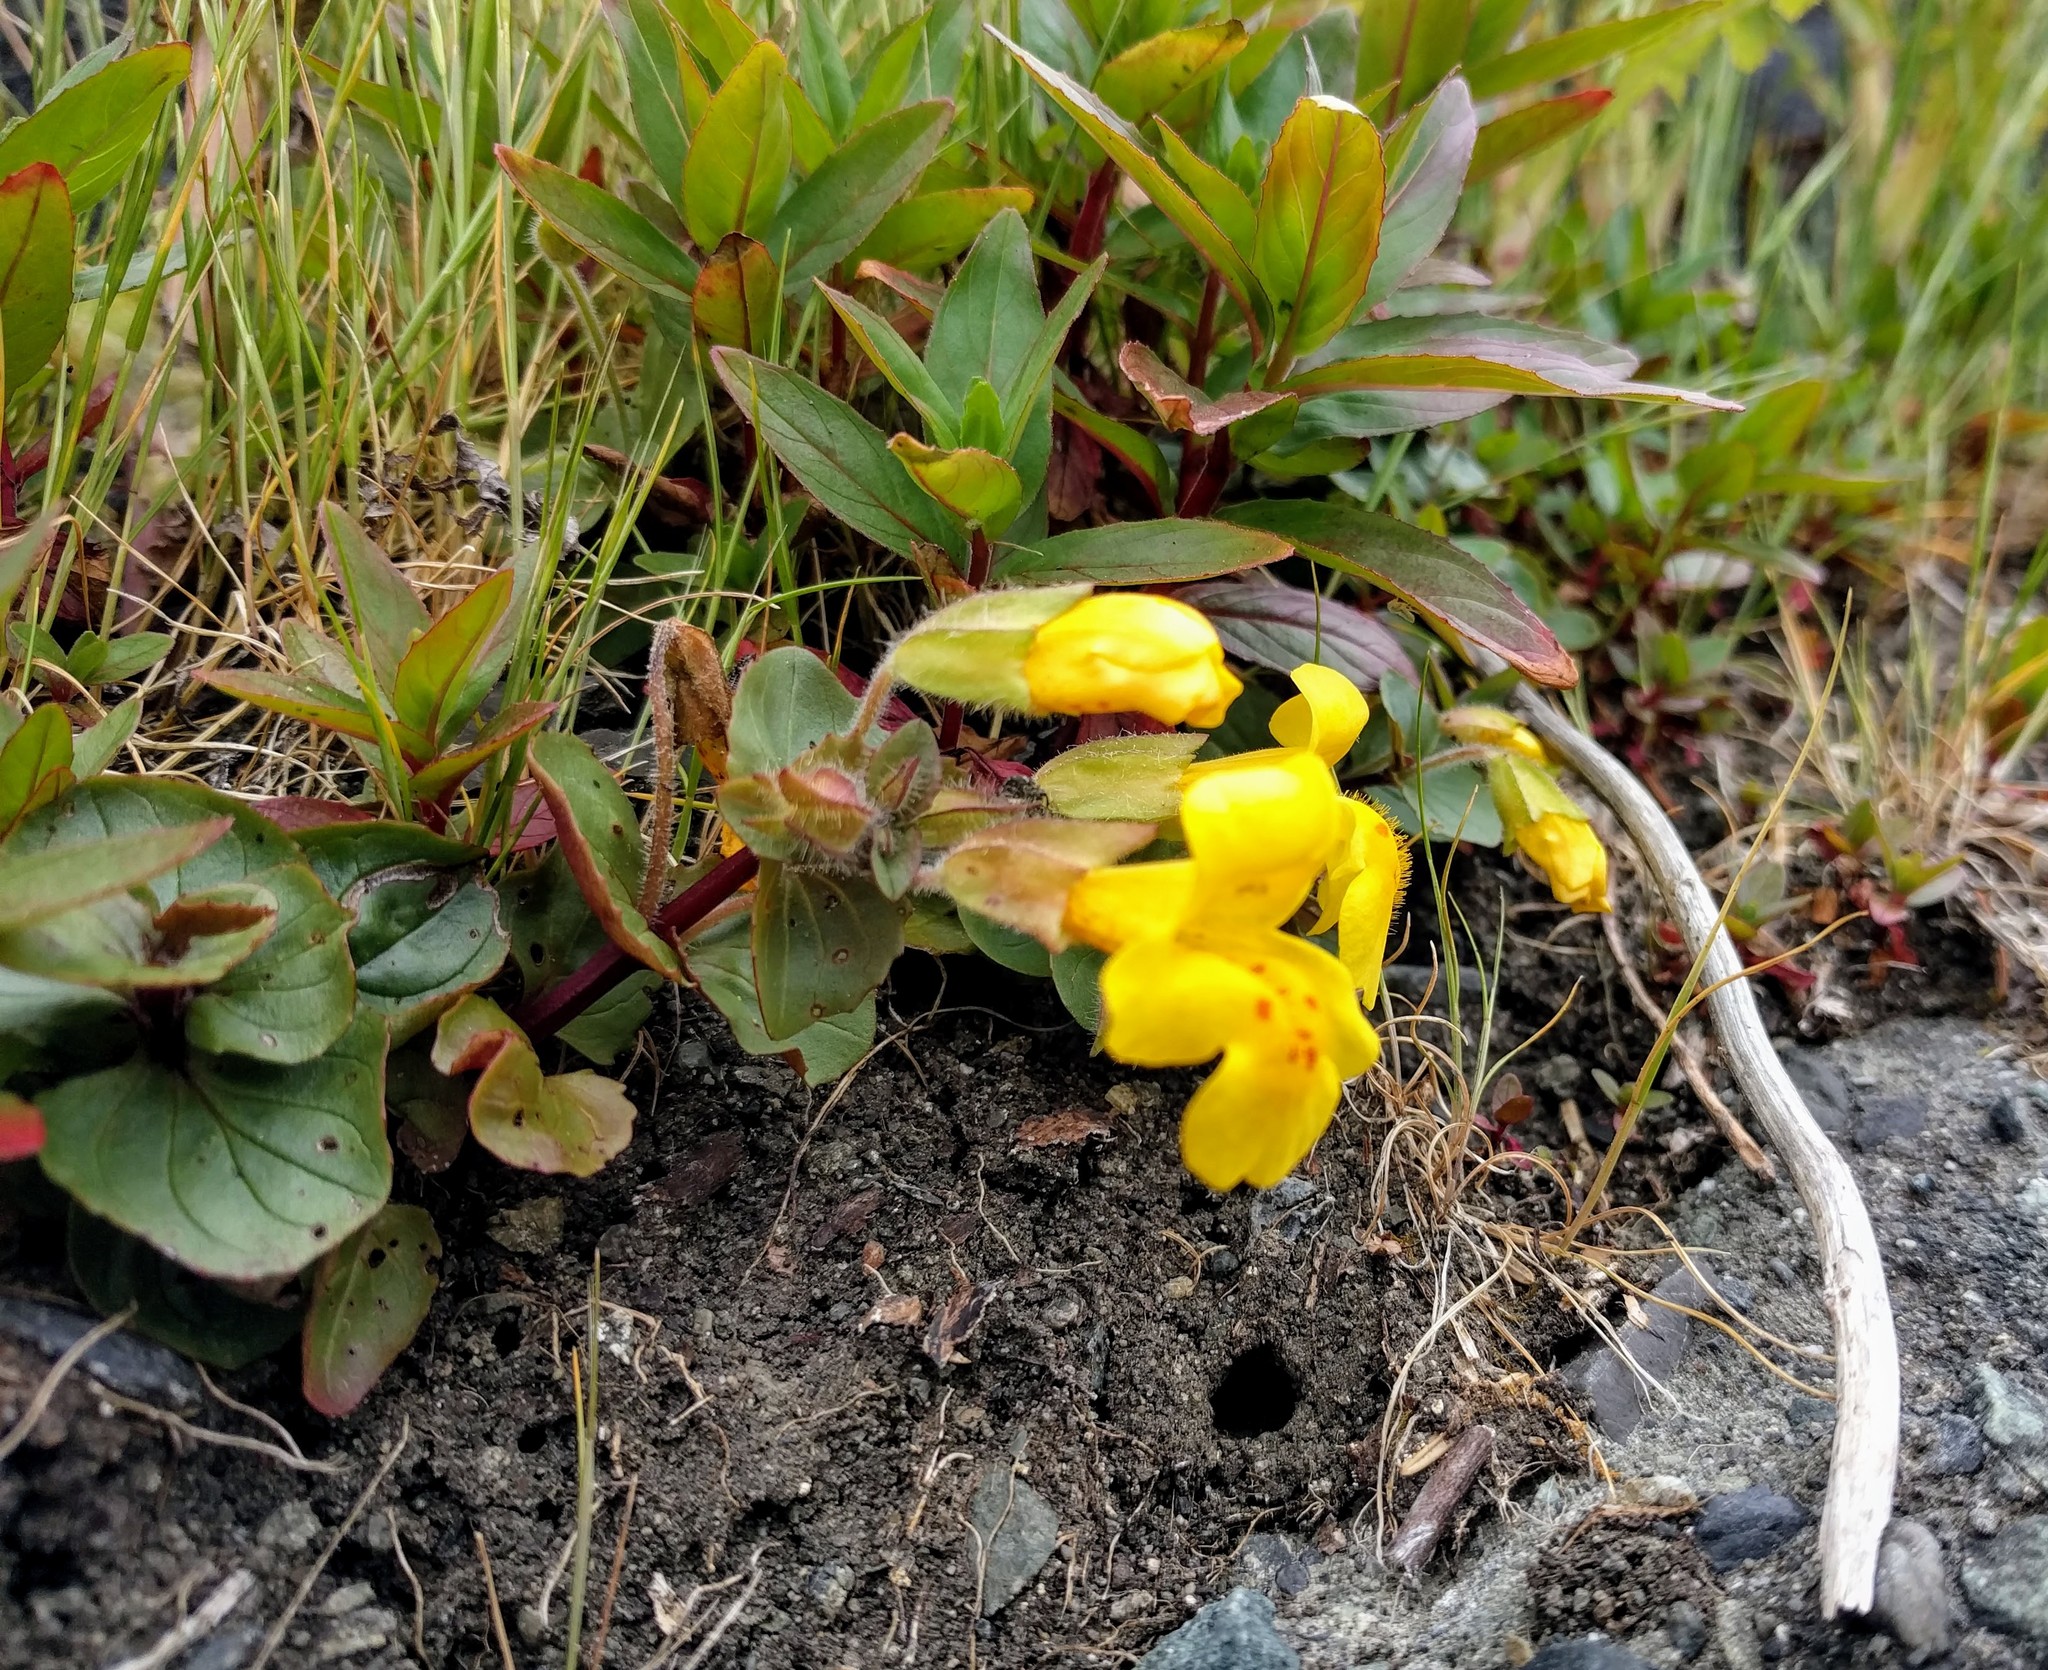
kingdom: Plantae
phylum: Tracheophyta
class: Magnoliopsida
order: Lamiales
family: Phrymaceae
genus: Erythranthe
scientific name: Erythranthe grandis
